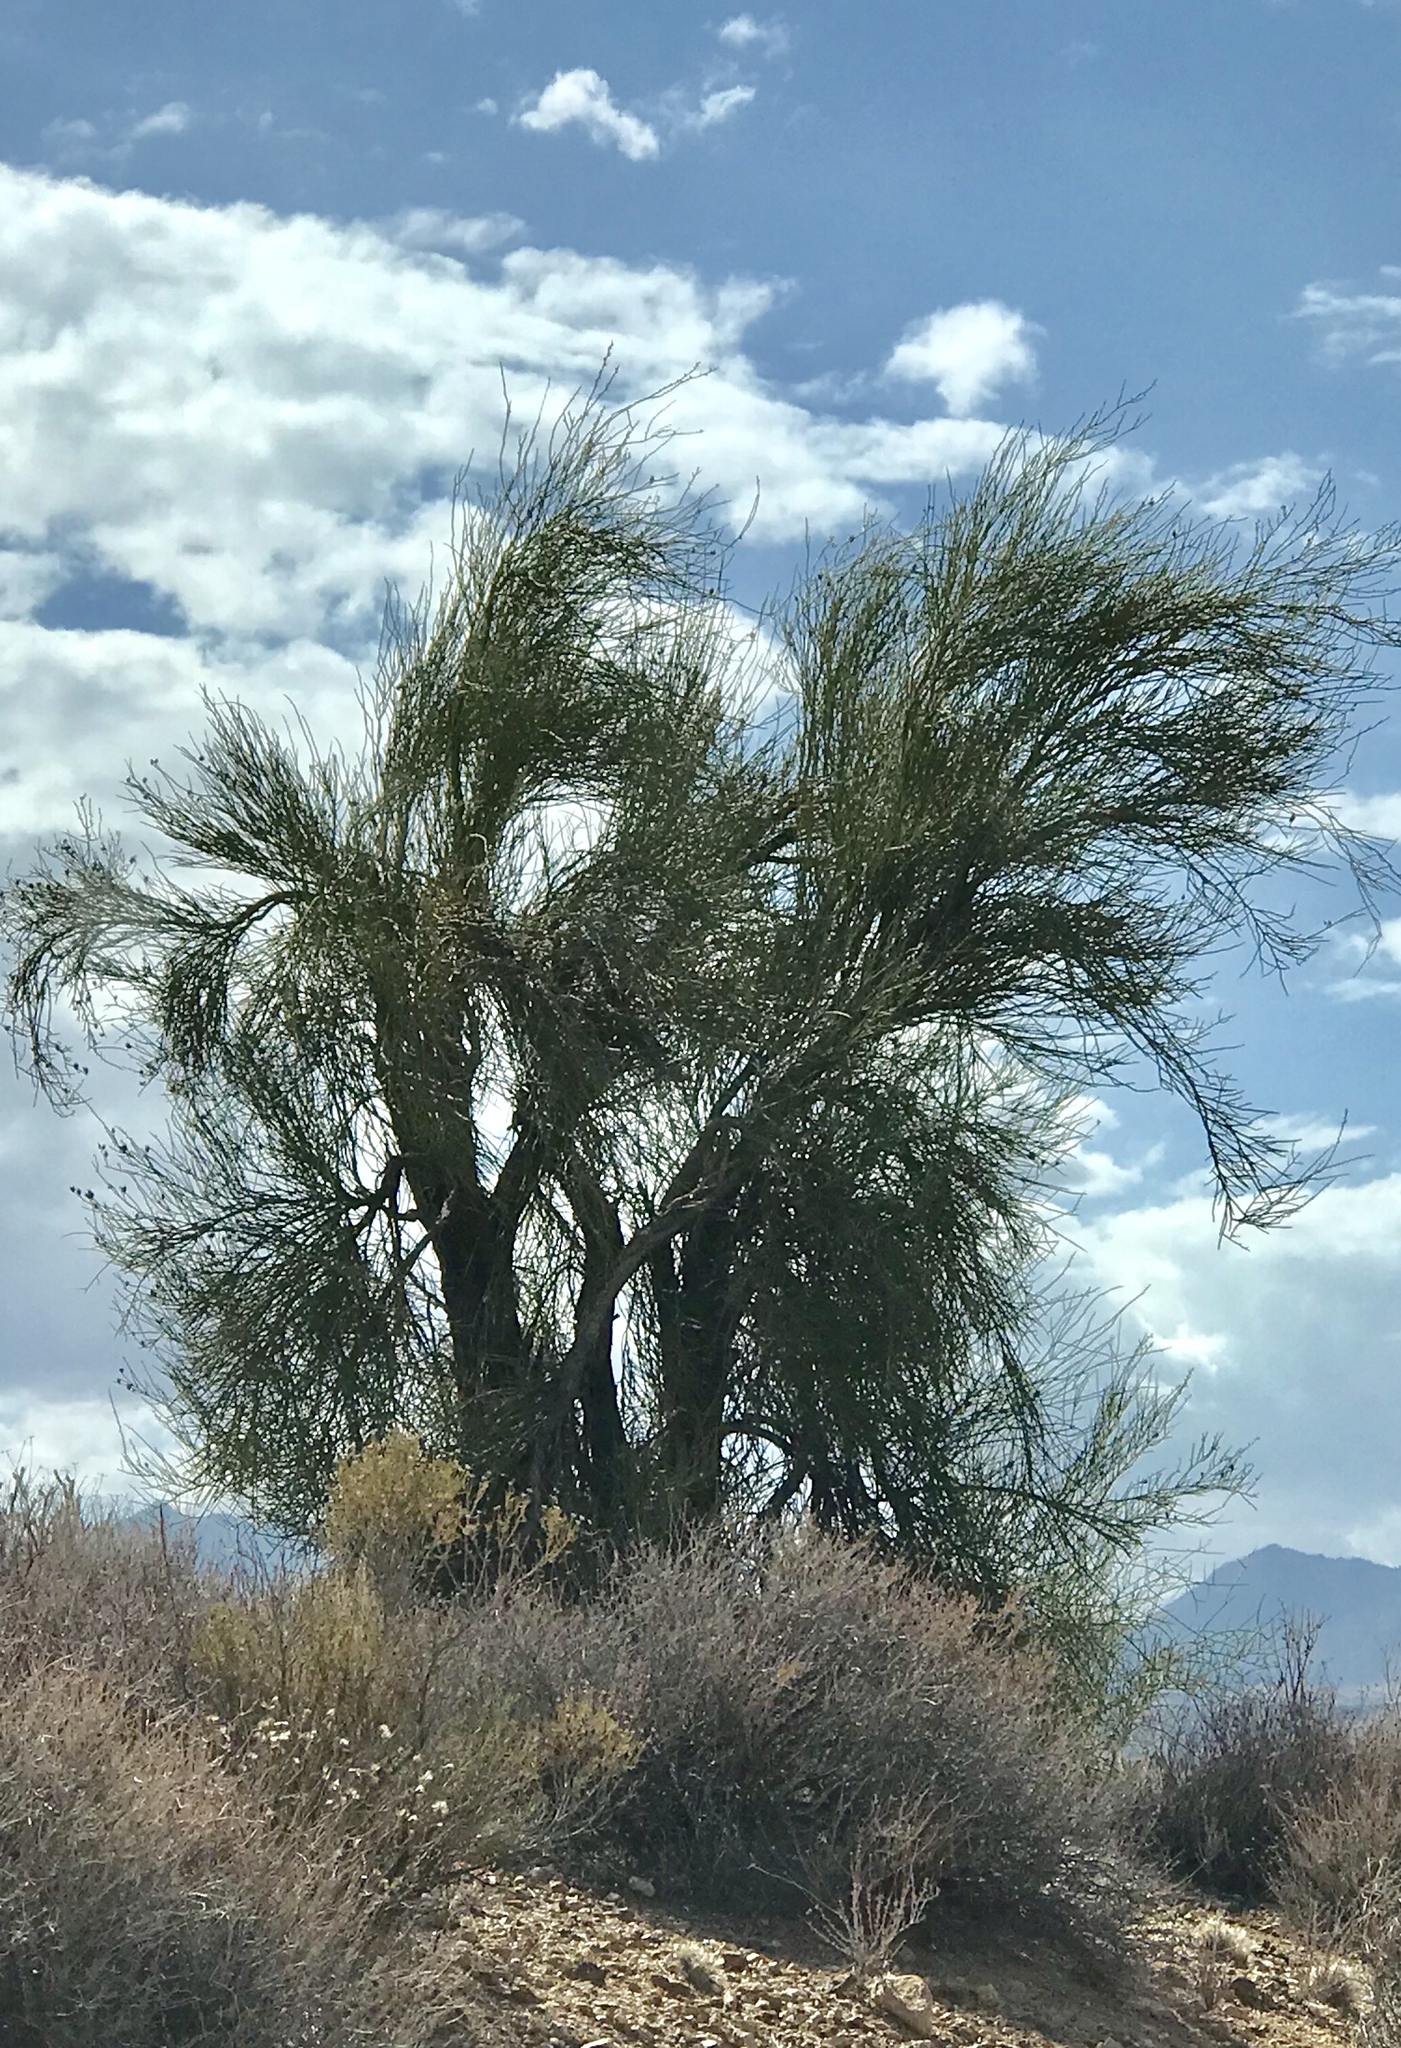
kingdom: Plantae
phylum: Tracheophyta
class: Magnoliopsida
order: Celastrales
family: Celastraceae
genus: Canotia
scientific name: Canotia holacantha
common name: Crucifixion thorns
